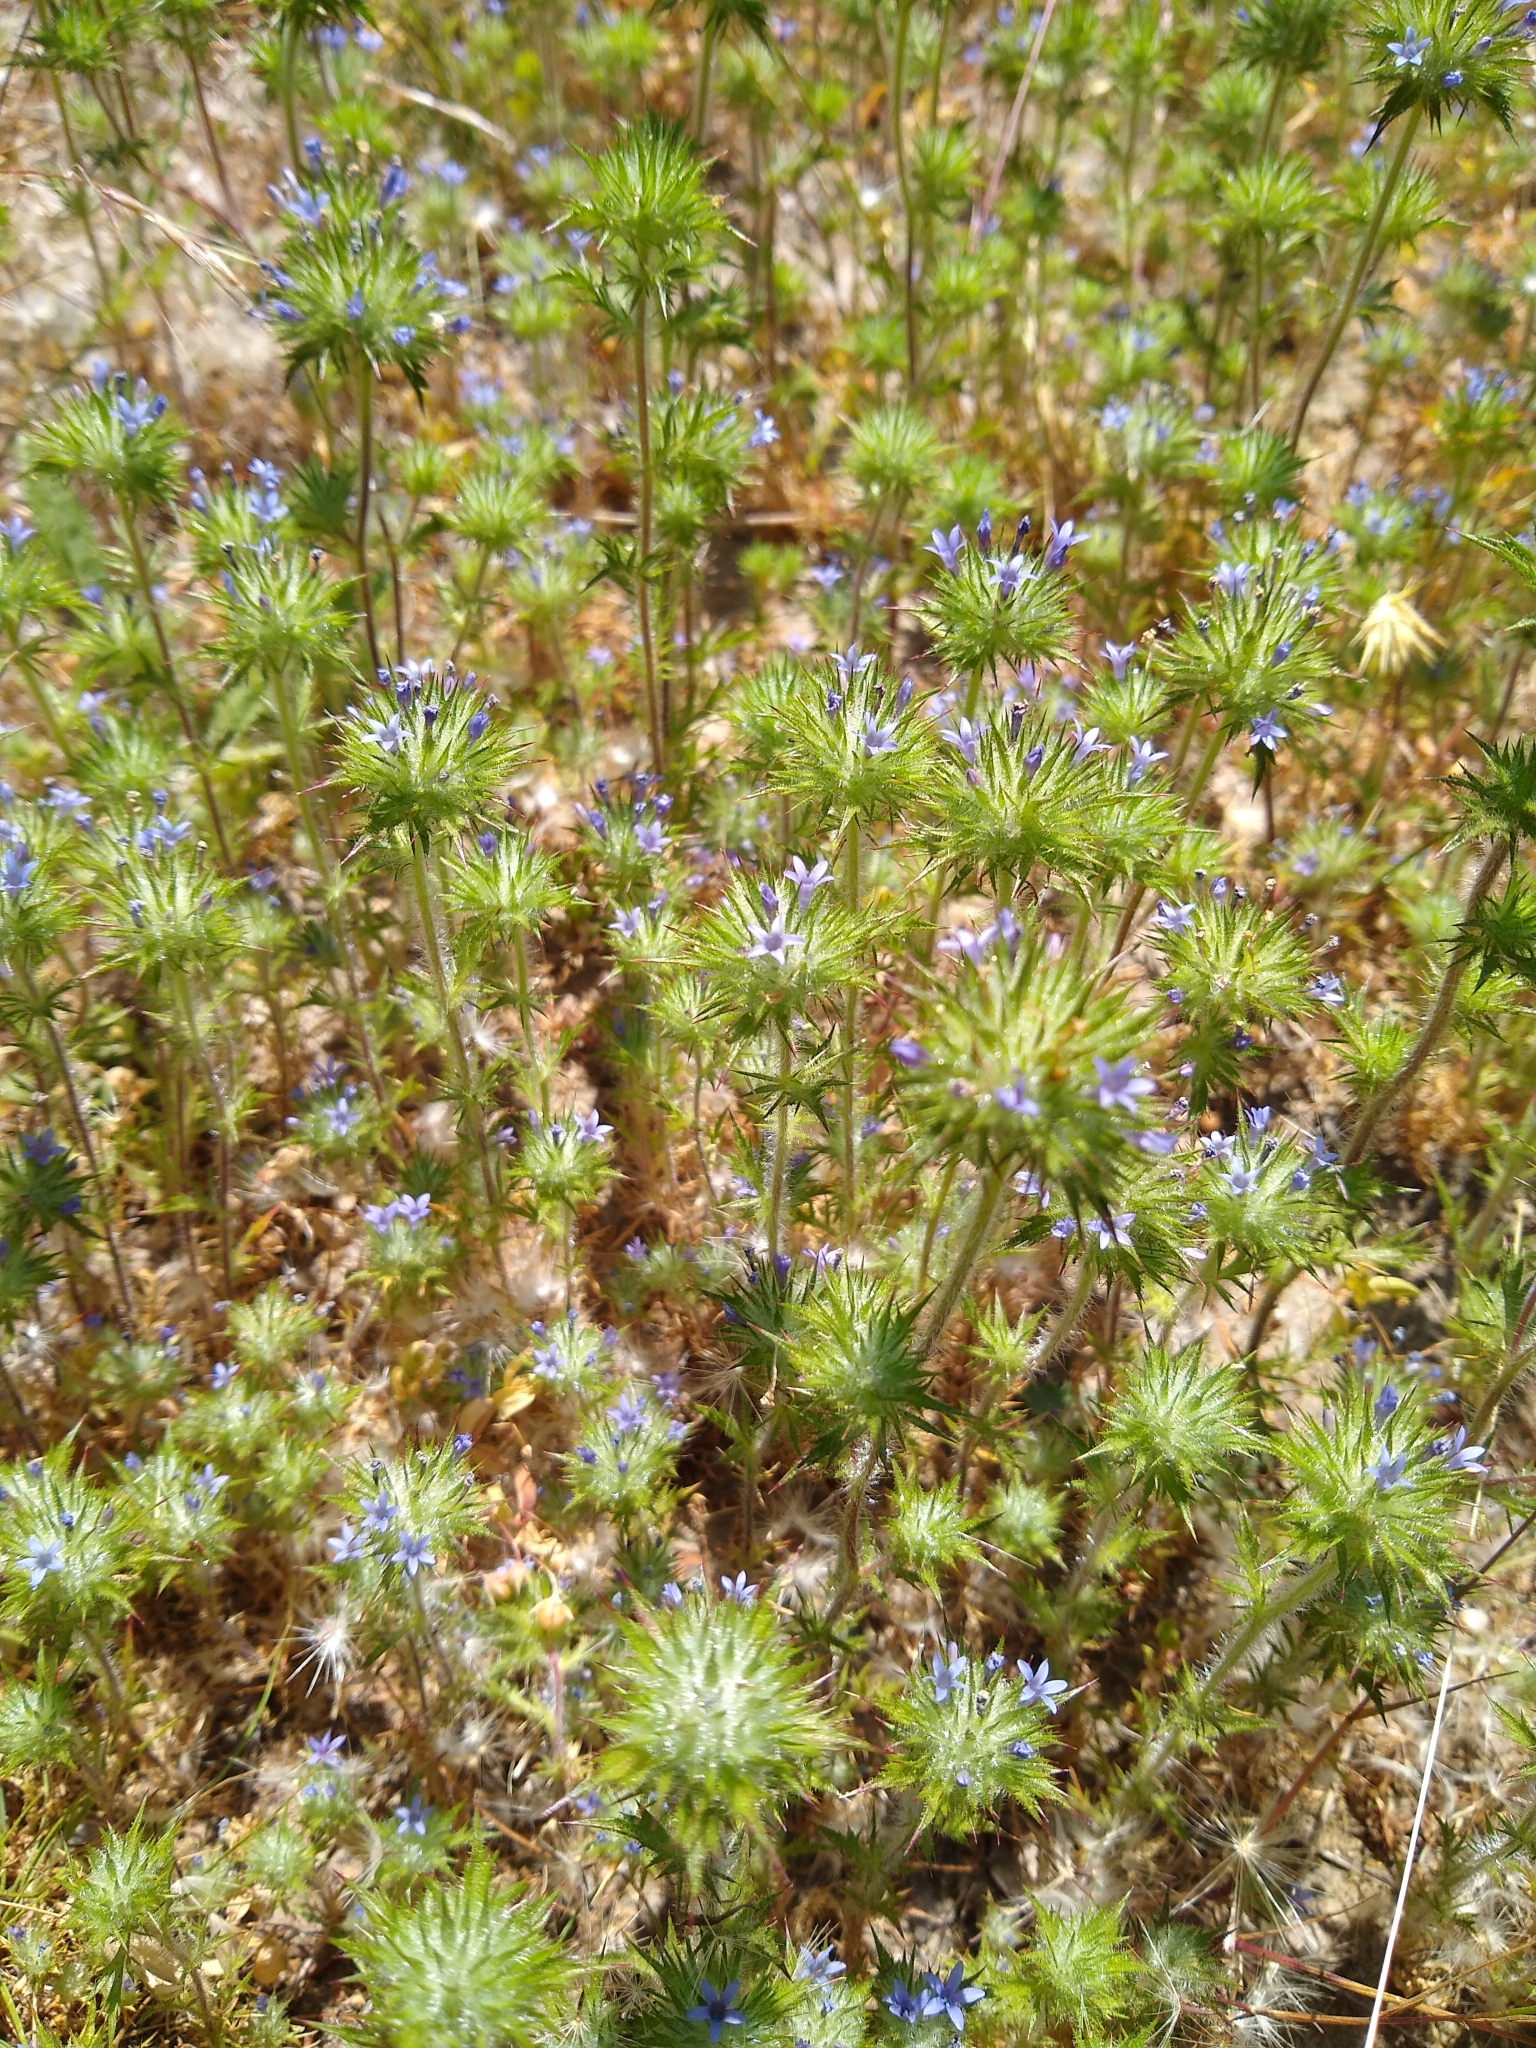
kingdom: Plantae
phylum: Tracheophyta
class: Magnoliopsida
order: Ericales
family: Polemoniaceae
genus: Navarretia
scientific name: Navarretia squarrosa
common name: Skunkweed
